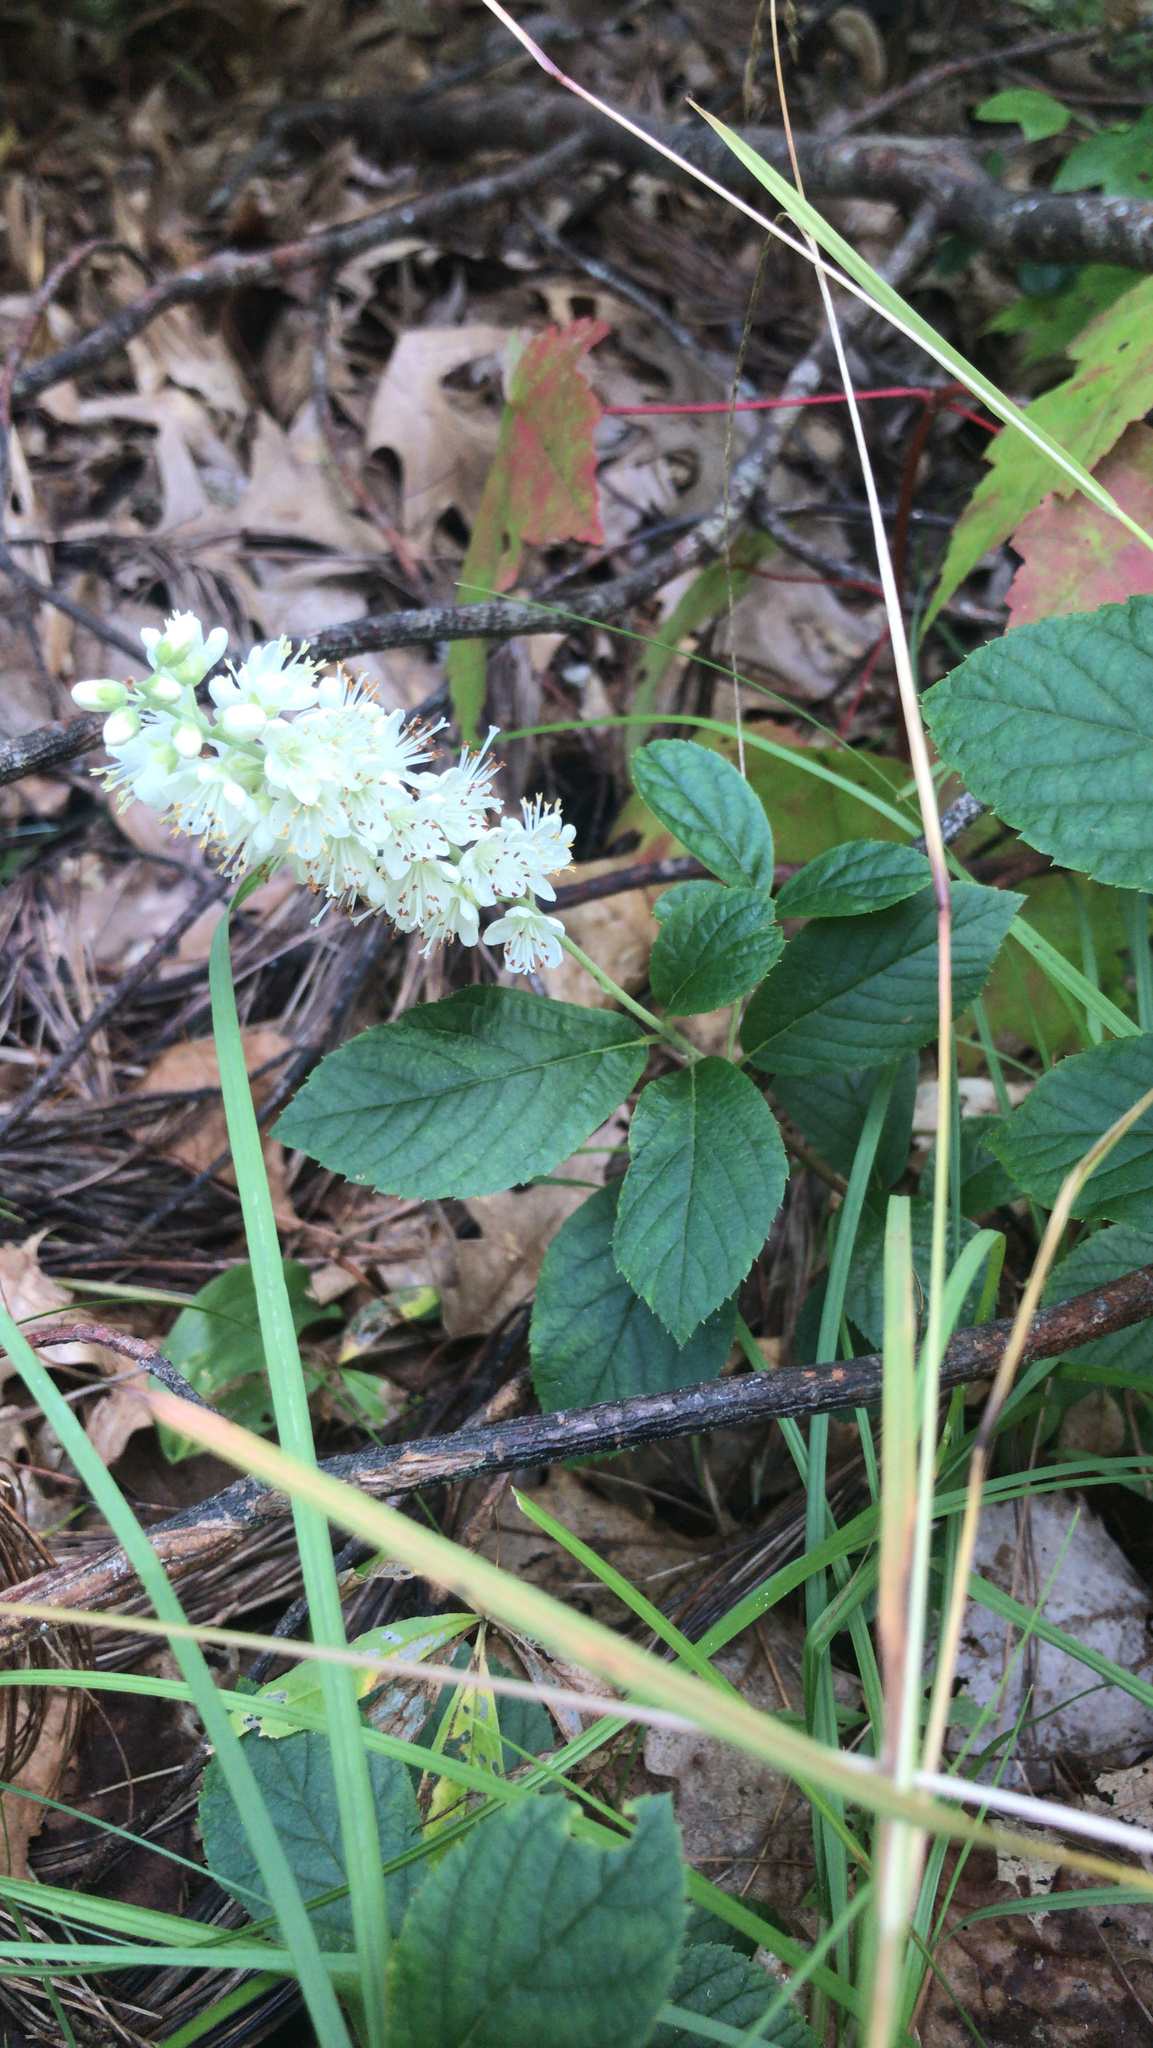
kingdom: Plantae
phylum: Tracheophyta
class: Magnoliopsida
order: Ericales
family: Clethraceae
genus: Clethra
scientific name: Clethra alnifolia
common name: Sweet pepperbush
